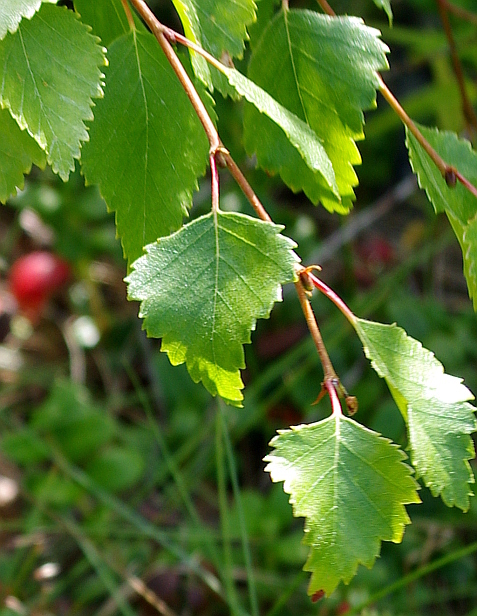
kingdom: Plantae
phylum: Tracheophyta
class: Magnoliopsida
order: Fagales
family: Betulaceae
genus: Betula
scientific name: Betula pendula
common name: Silver birch
